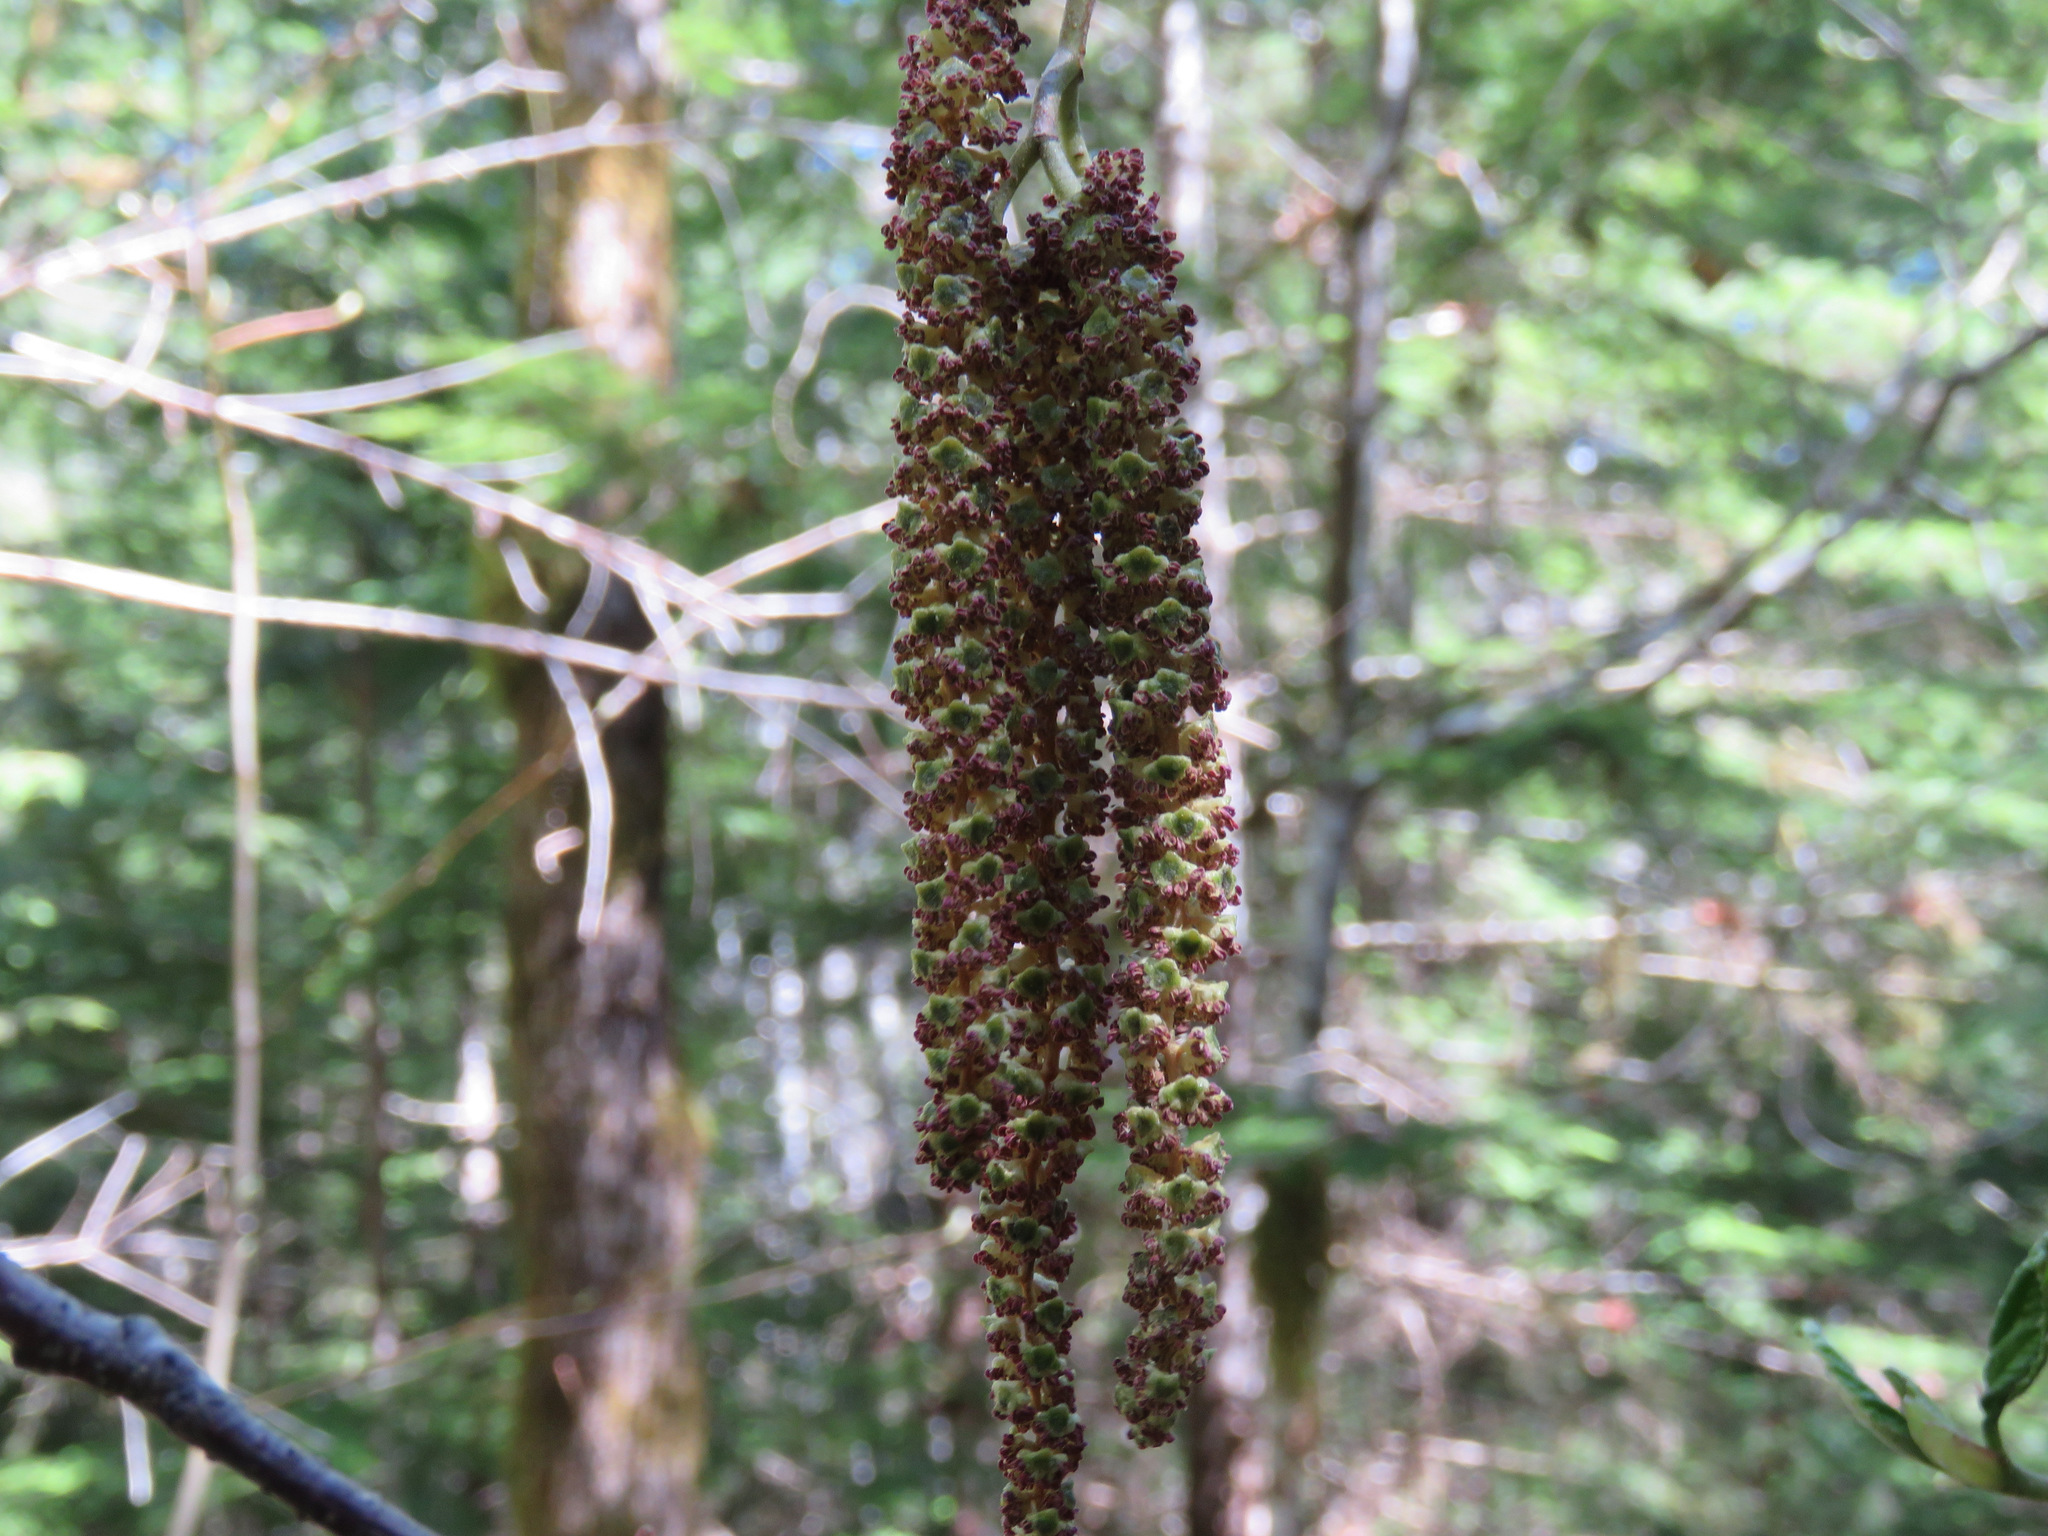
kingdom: Plantae
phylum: Tracheophyta
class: Magnoliopsida
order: Fagales
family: Betulaceae
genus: Alnus
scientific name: Alnus rubra
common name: Red alder
